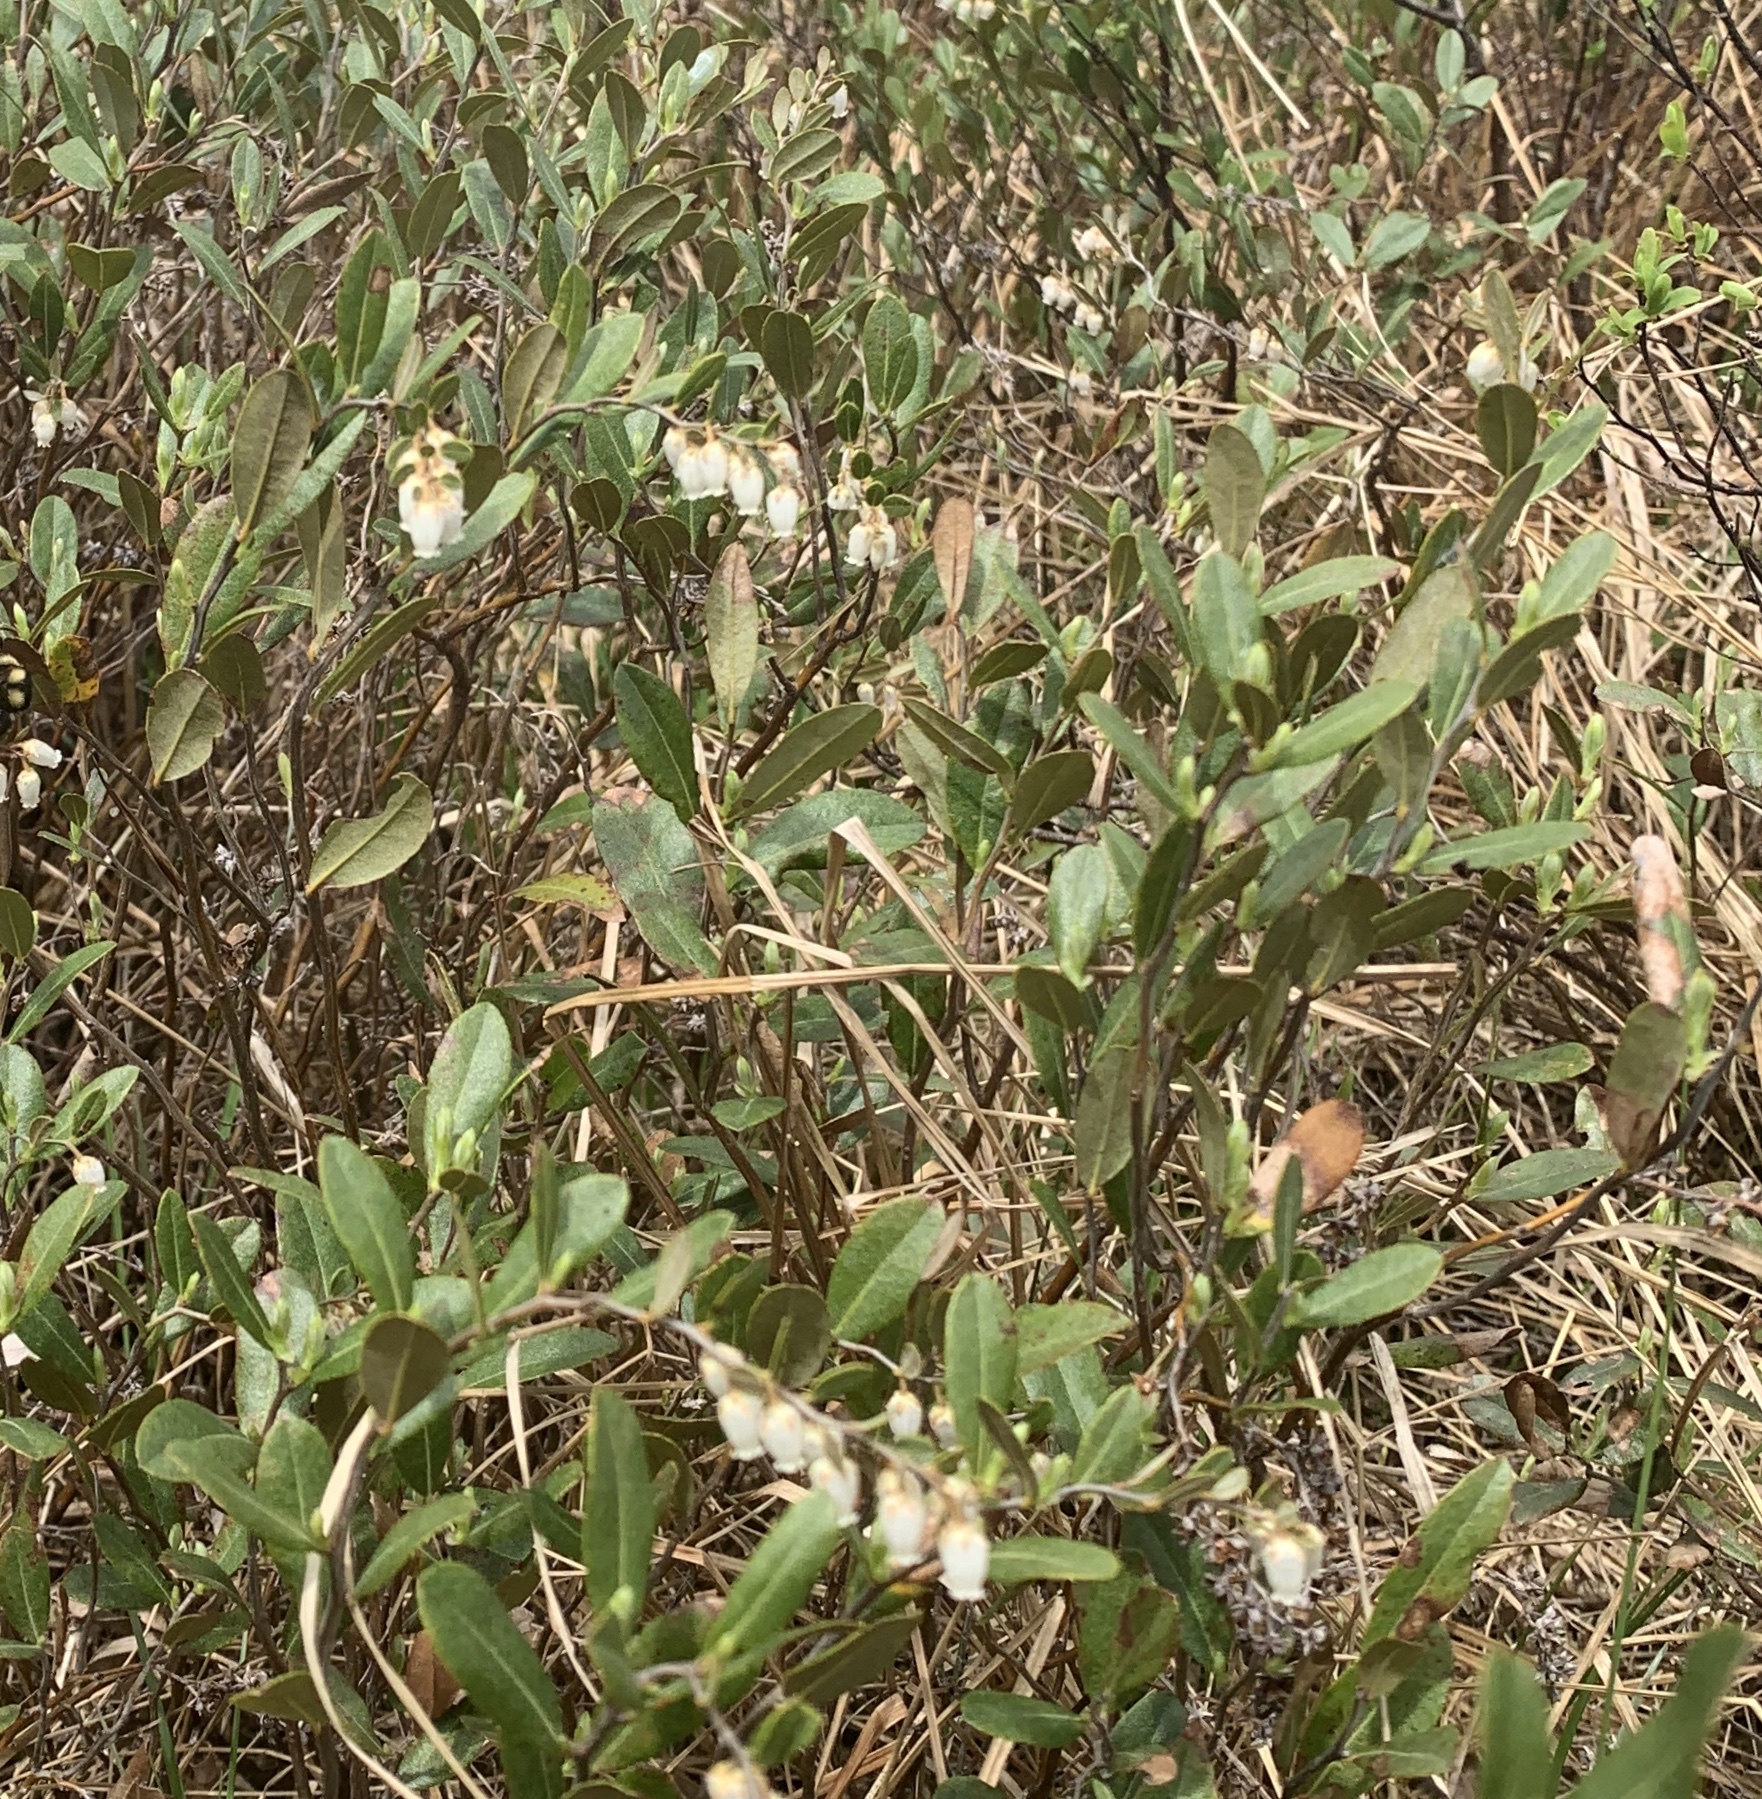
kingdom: Plantae
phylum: Tracheophyta
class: Magnoliopsida
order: Ericales
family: Ericaceae
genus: Chamaedaphne
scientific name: Chamaedaphne calyculata
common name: Leatherleaf
